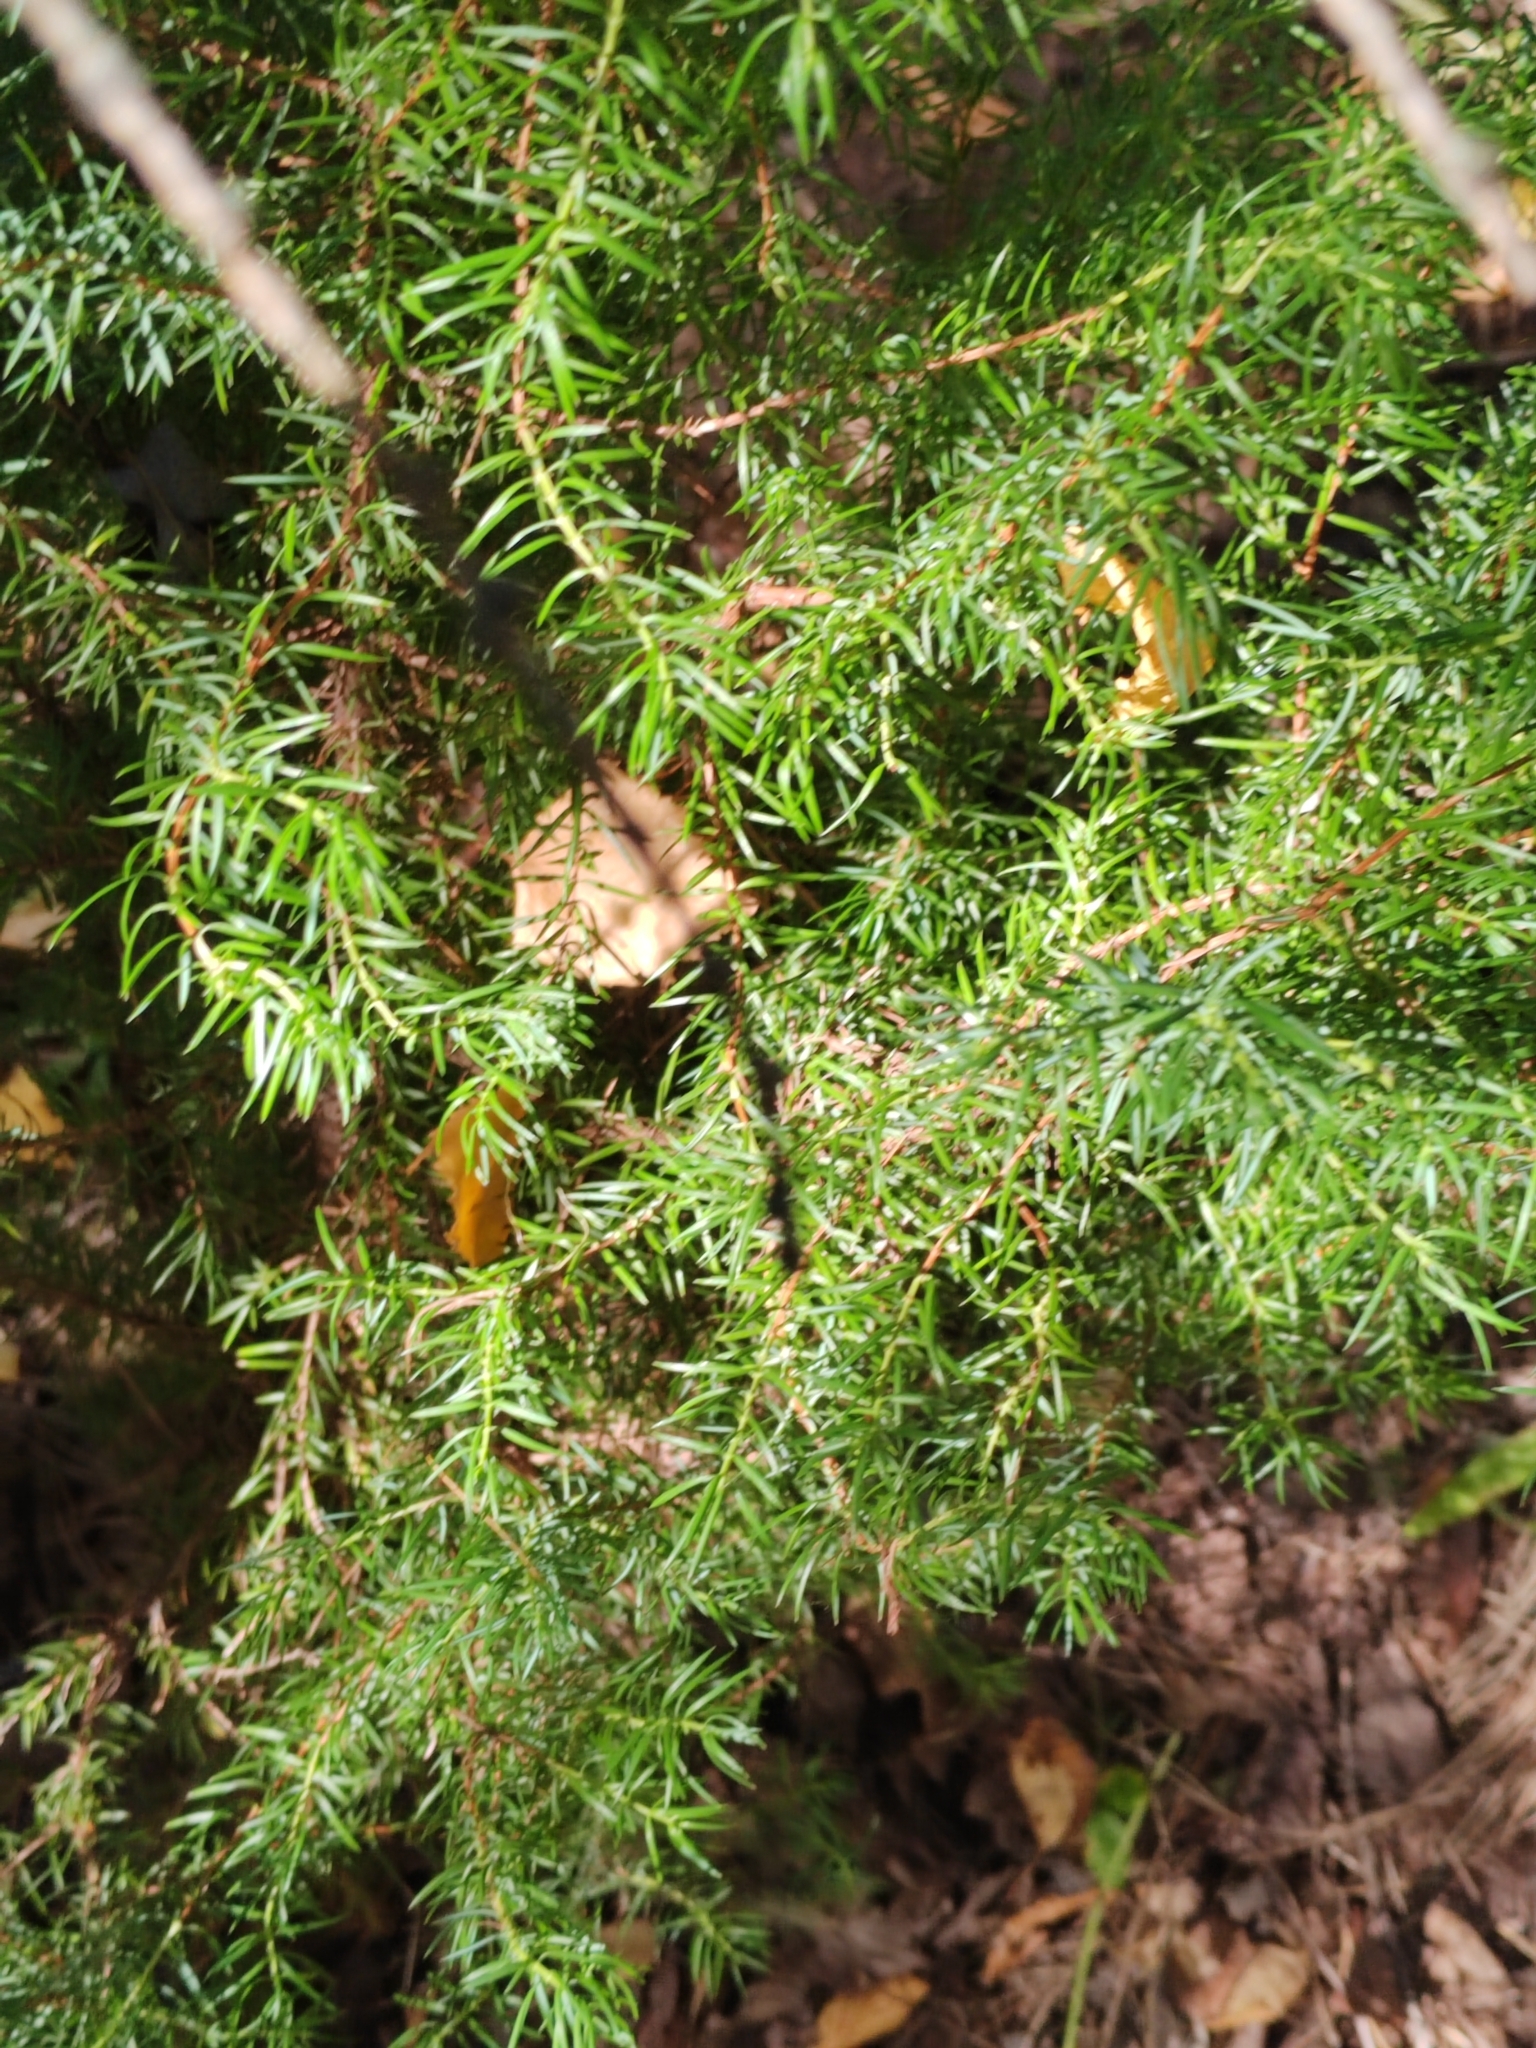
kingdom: Plantae
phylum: Tracheophyta
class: Pinopsida
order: Pinales
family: Cupressaceae
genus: Juniperus
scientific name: Juniperus communis
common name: Common juniper
